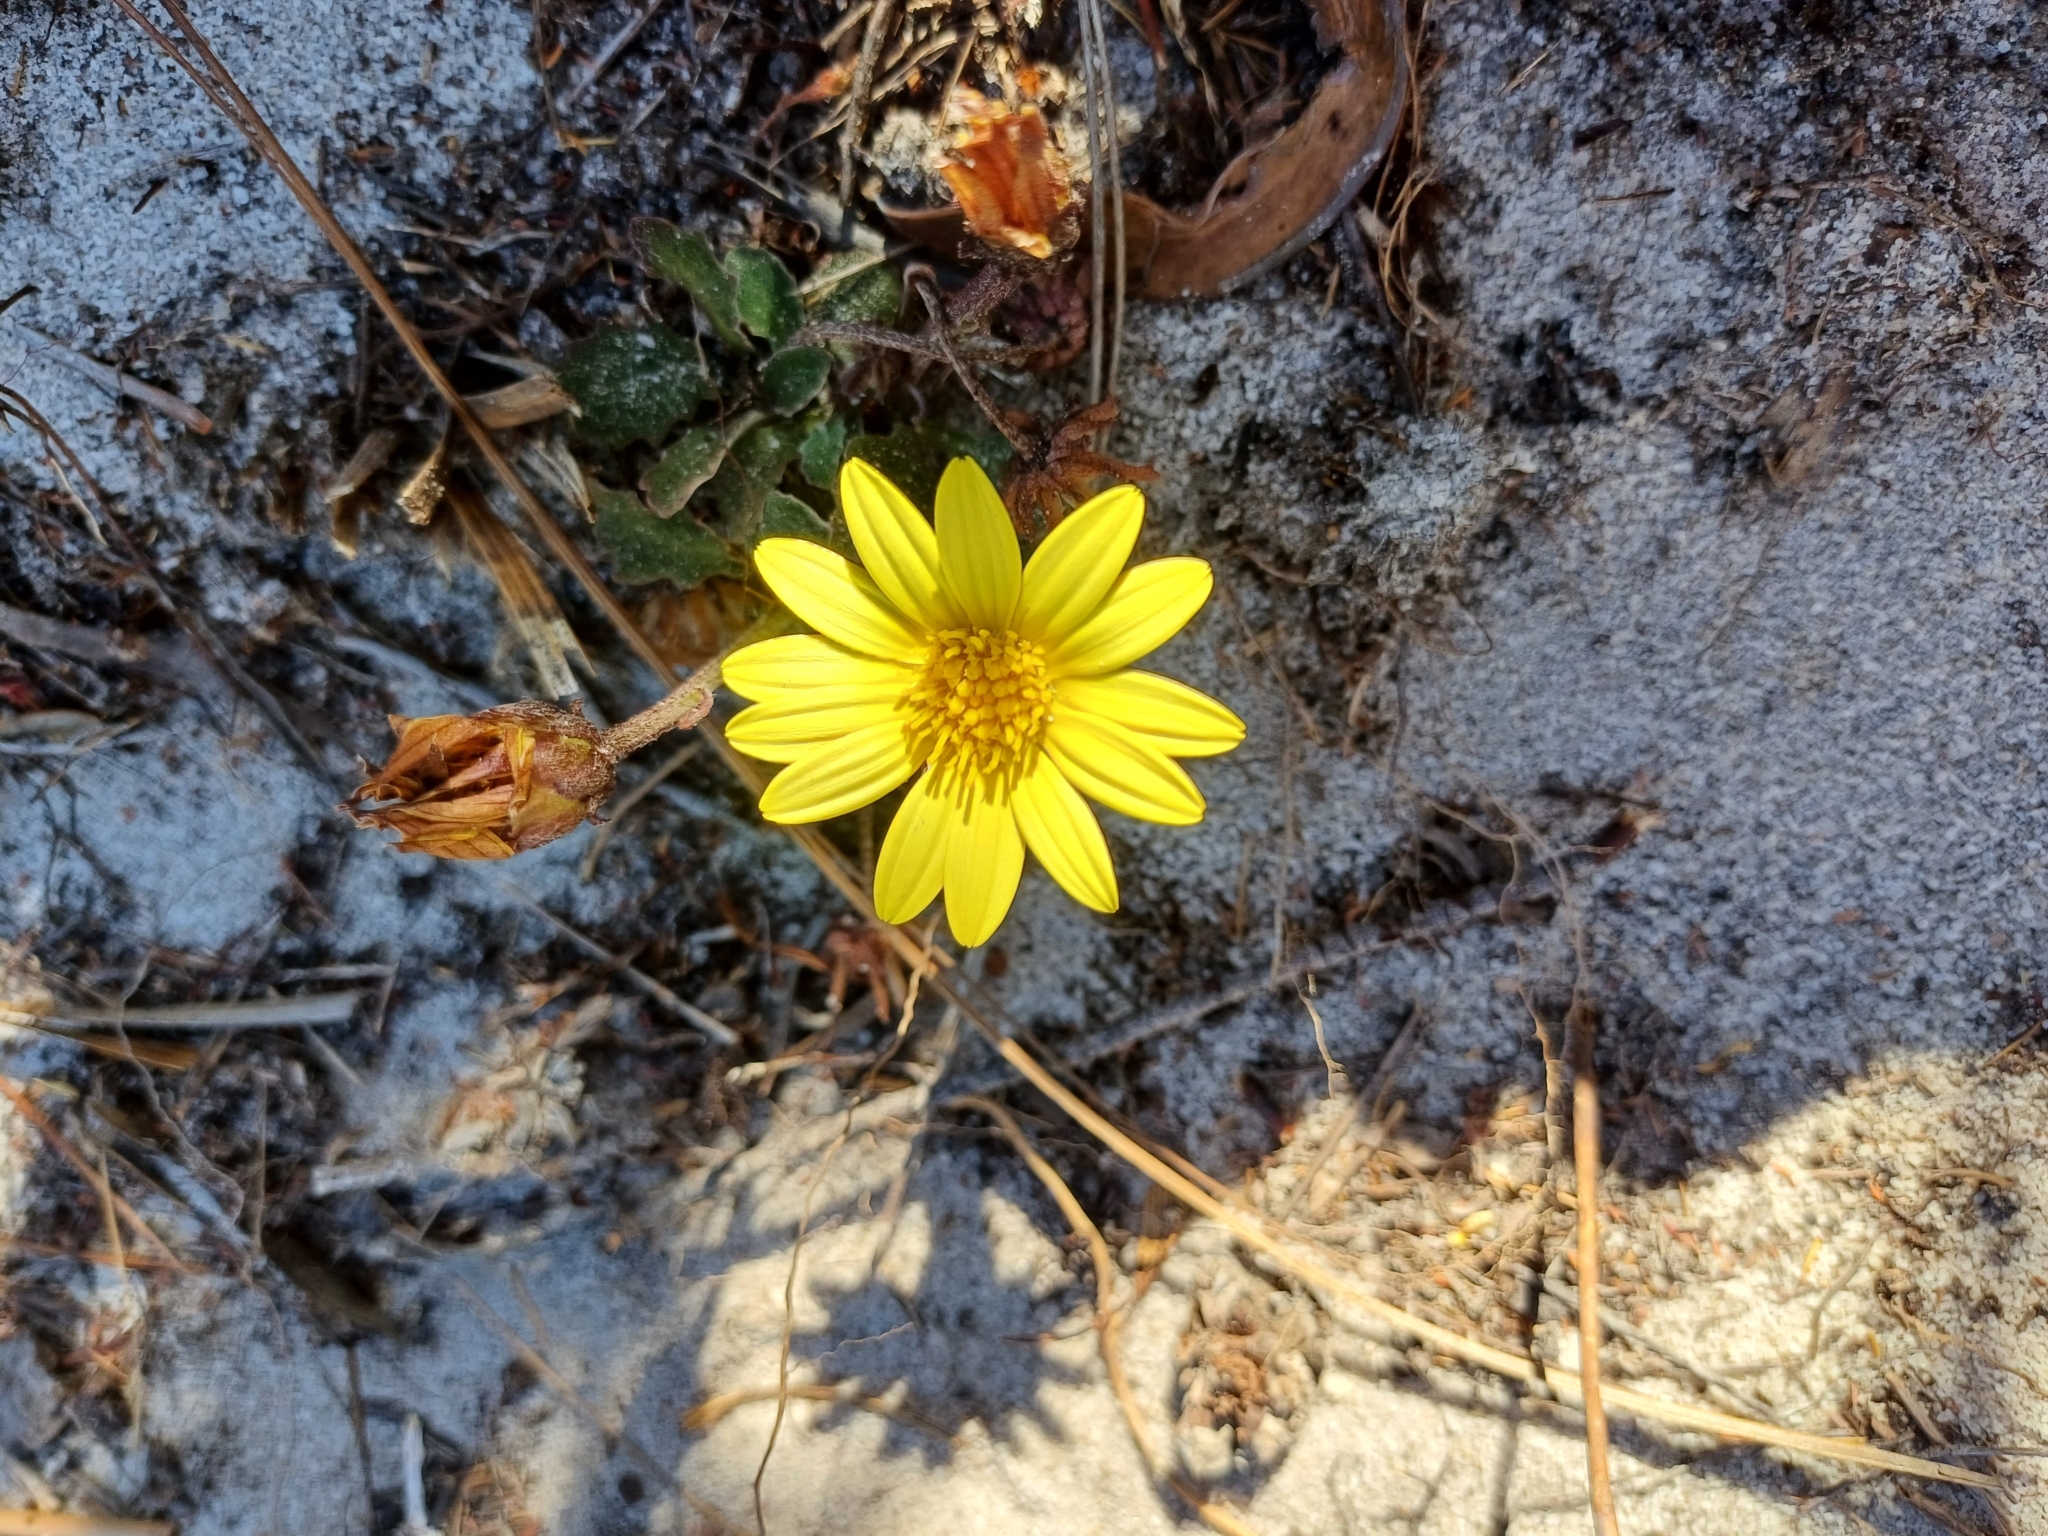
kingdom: Plantae
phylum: Tracheophyta
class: Magnoliopsida
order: Asterales
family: Asteraceae
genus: Haplocarpha
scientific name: Haplocarpha lanata
